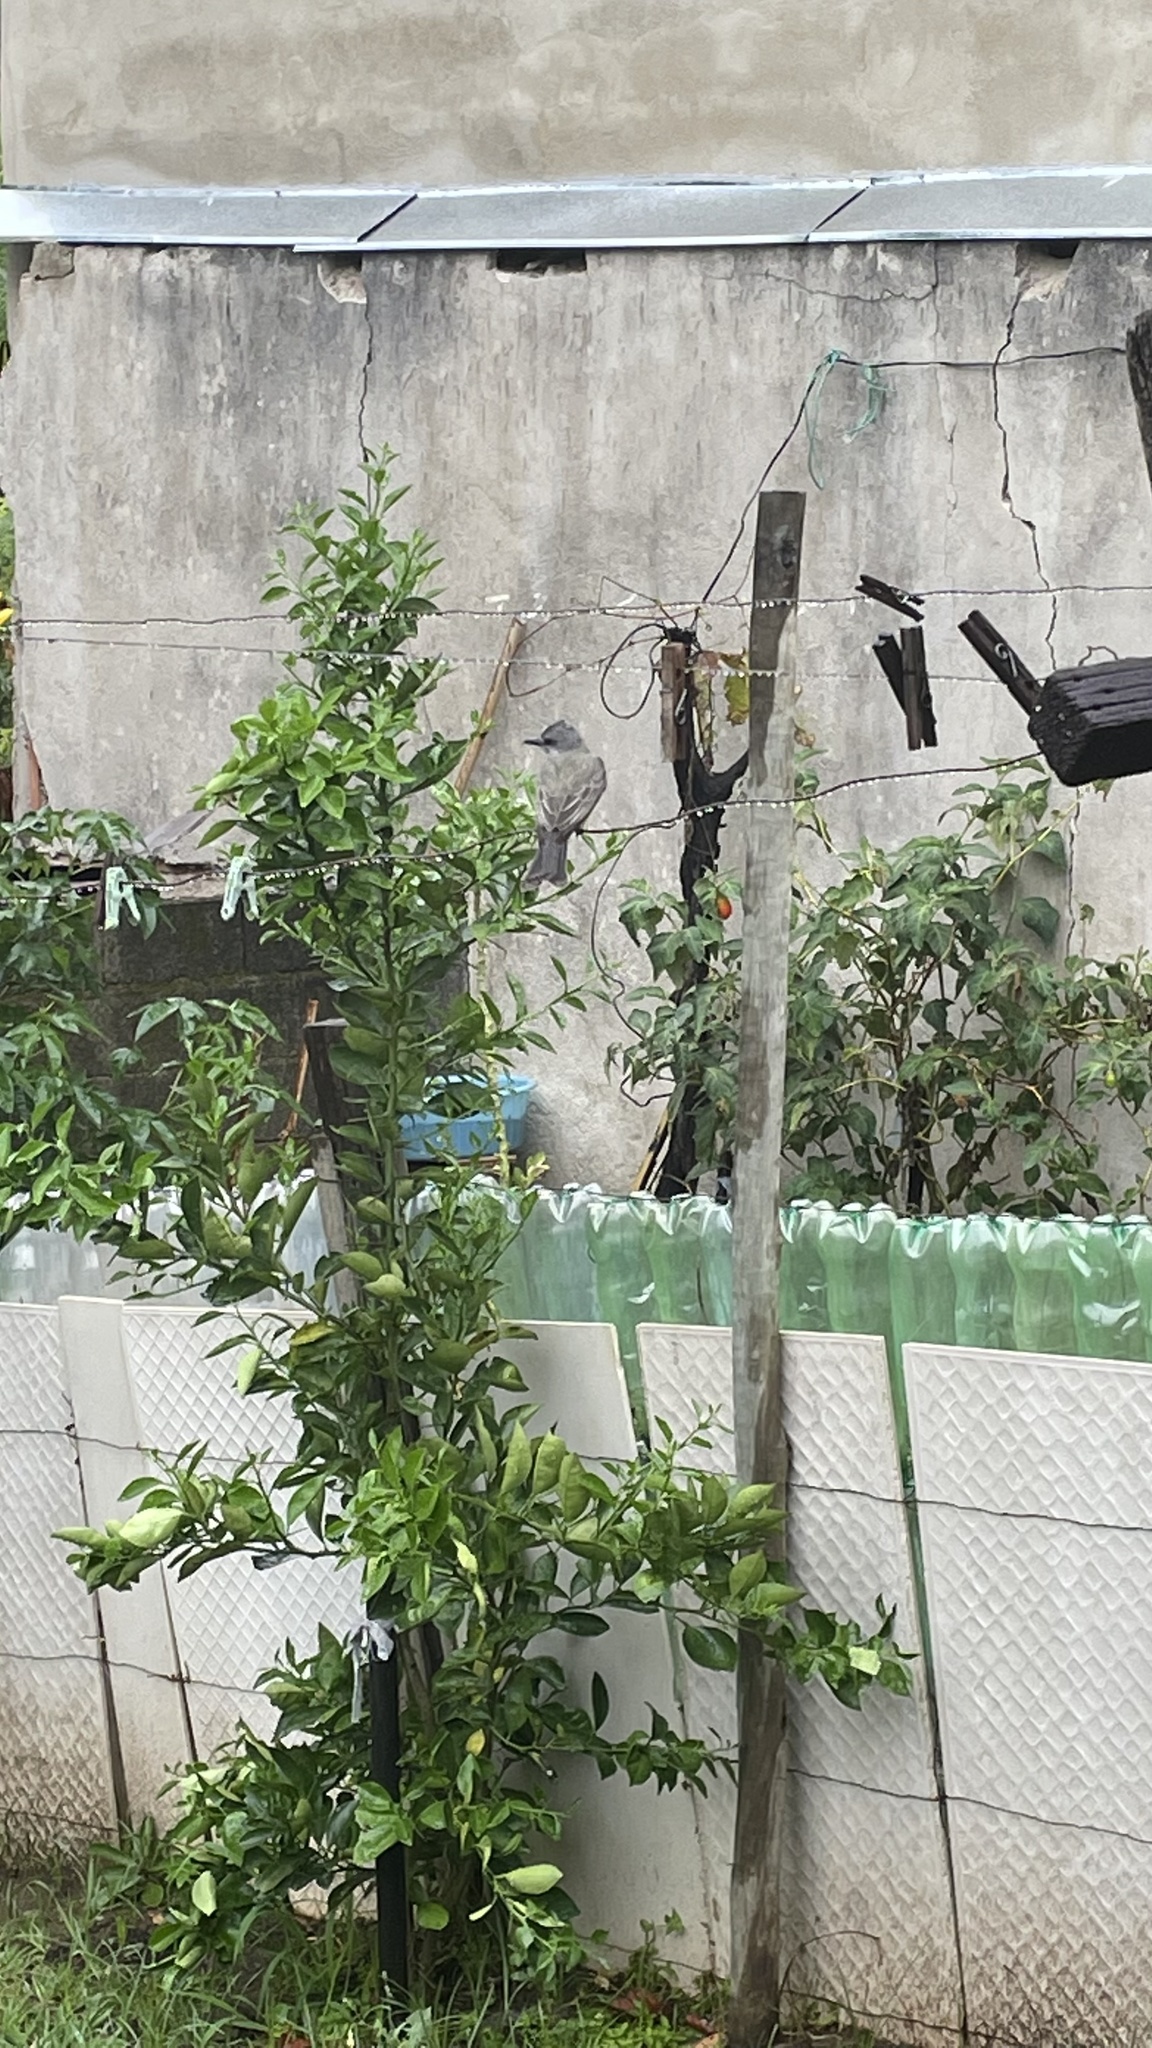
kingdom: Animalia
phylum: Chordata
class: Aves
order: Passeriformes
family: Tyrannidae
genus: Tyrannus
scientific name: Tyrannus melancholicus
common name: Tropical kingbird
